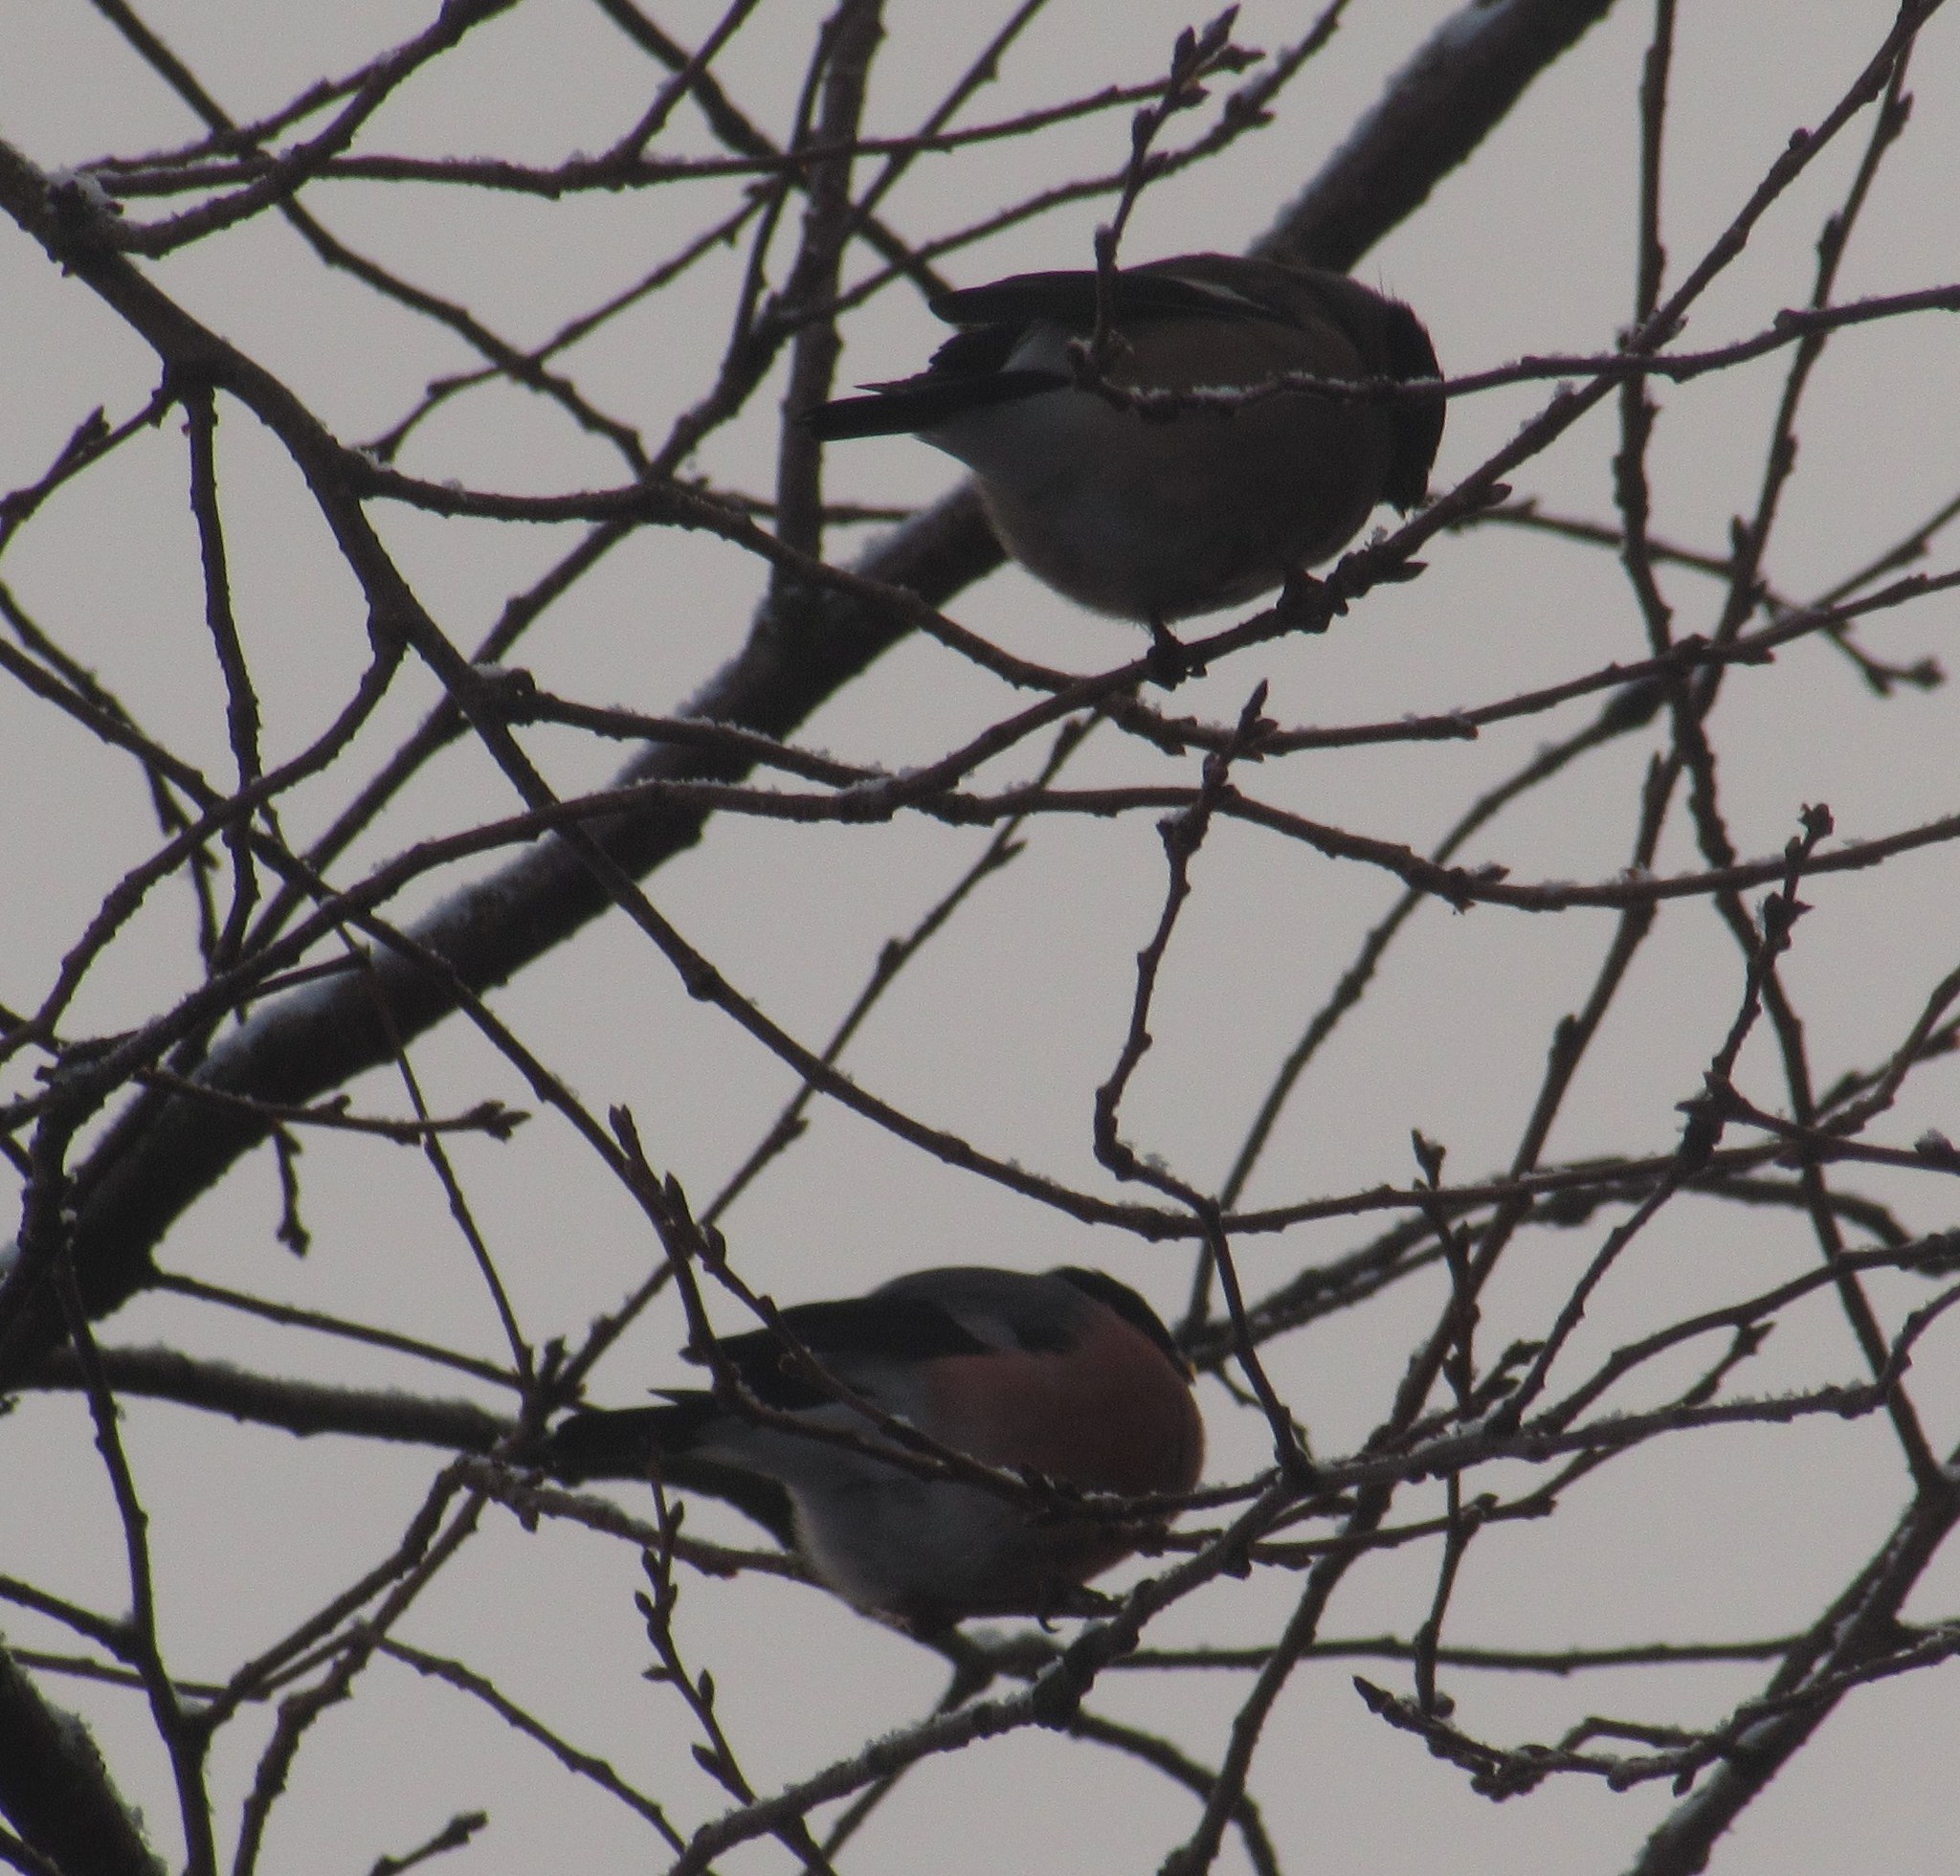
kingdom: Animalia
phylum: Chordata
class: Aves
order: Passeriformes
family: Fringillidae
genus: Pyrrhula
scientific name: Pyrrhula pyrrhula
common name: Eurasian bullfinch
